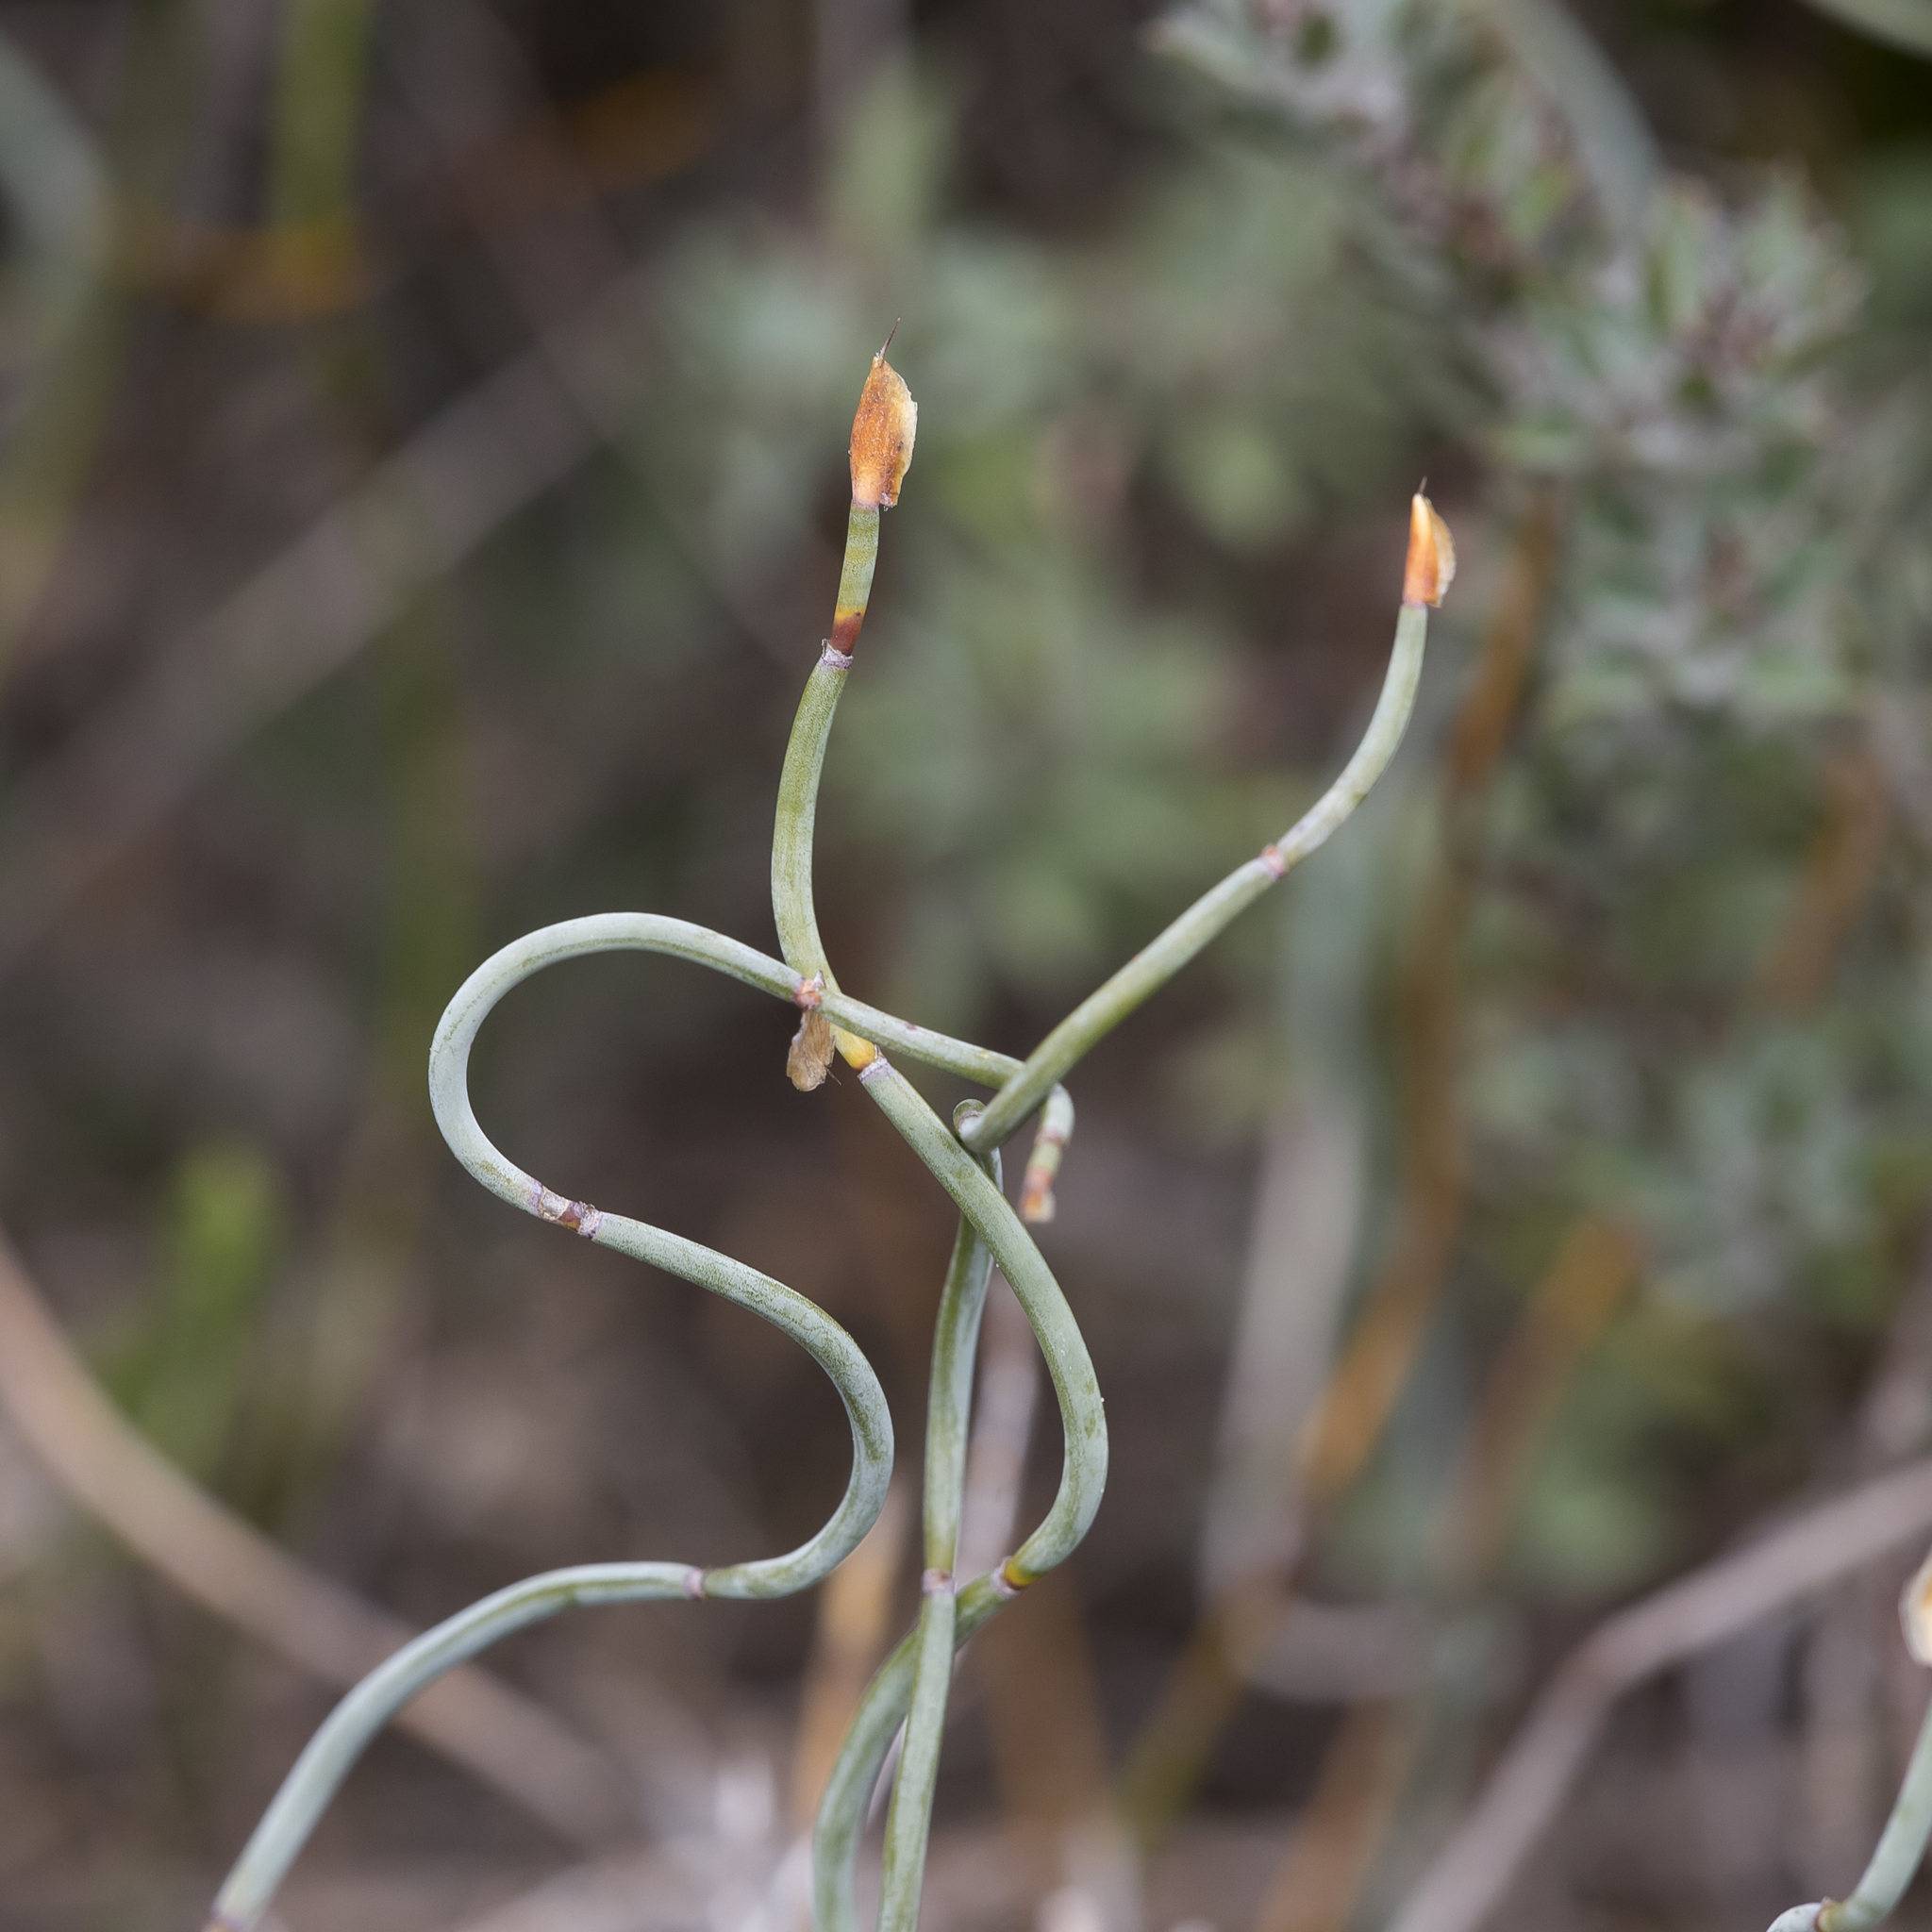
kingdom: Plantae
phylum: Tracheophyta
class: Liliopsida
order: Poales
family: Restionaceae
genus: Lepidobolus
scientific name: Lepidobolus drapetocoleus
